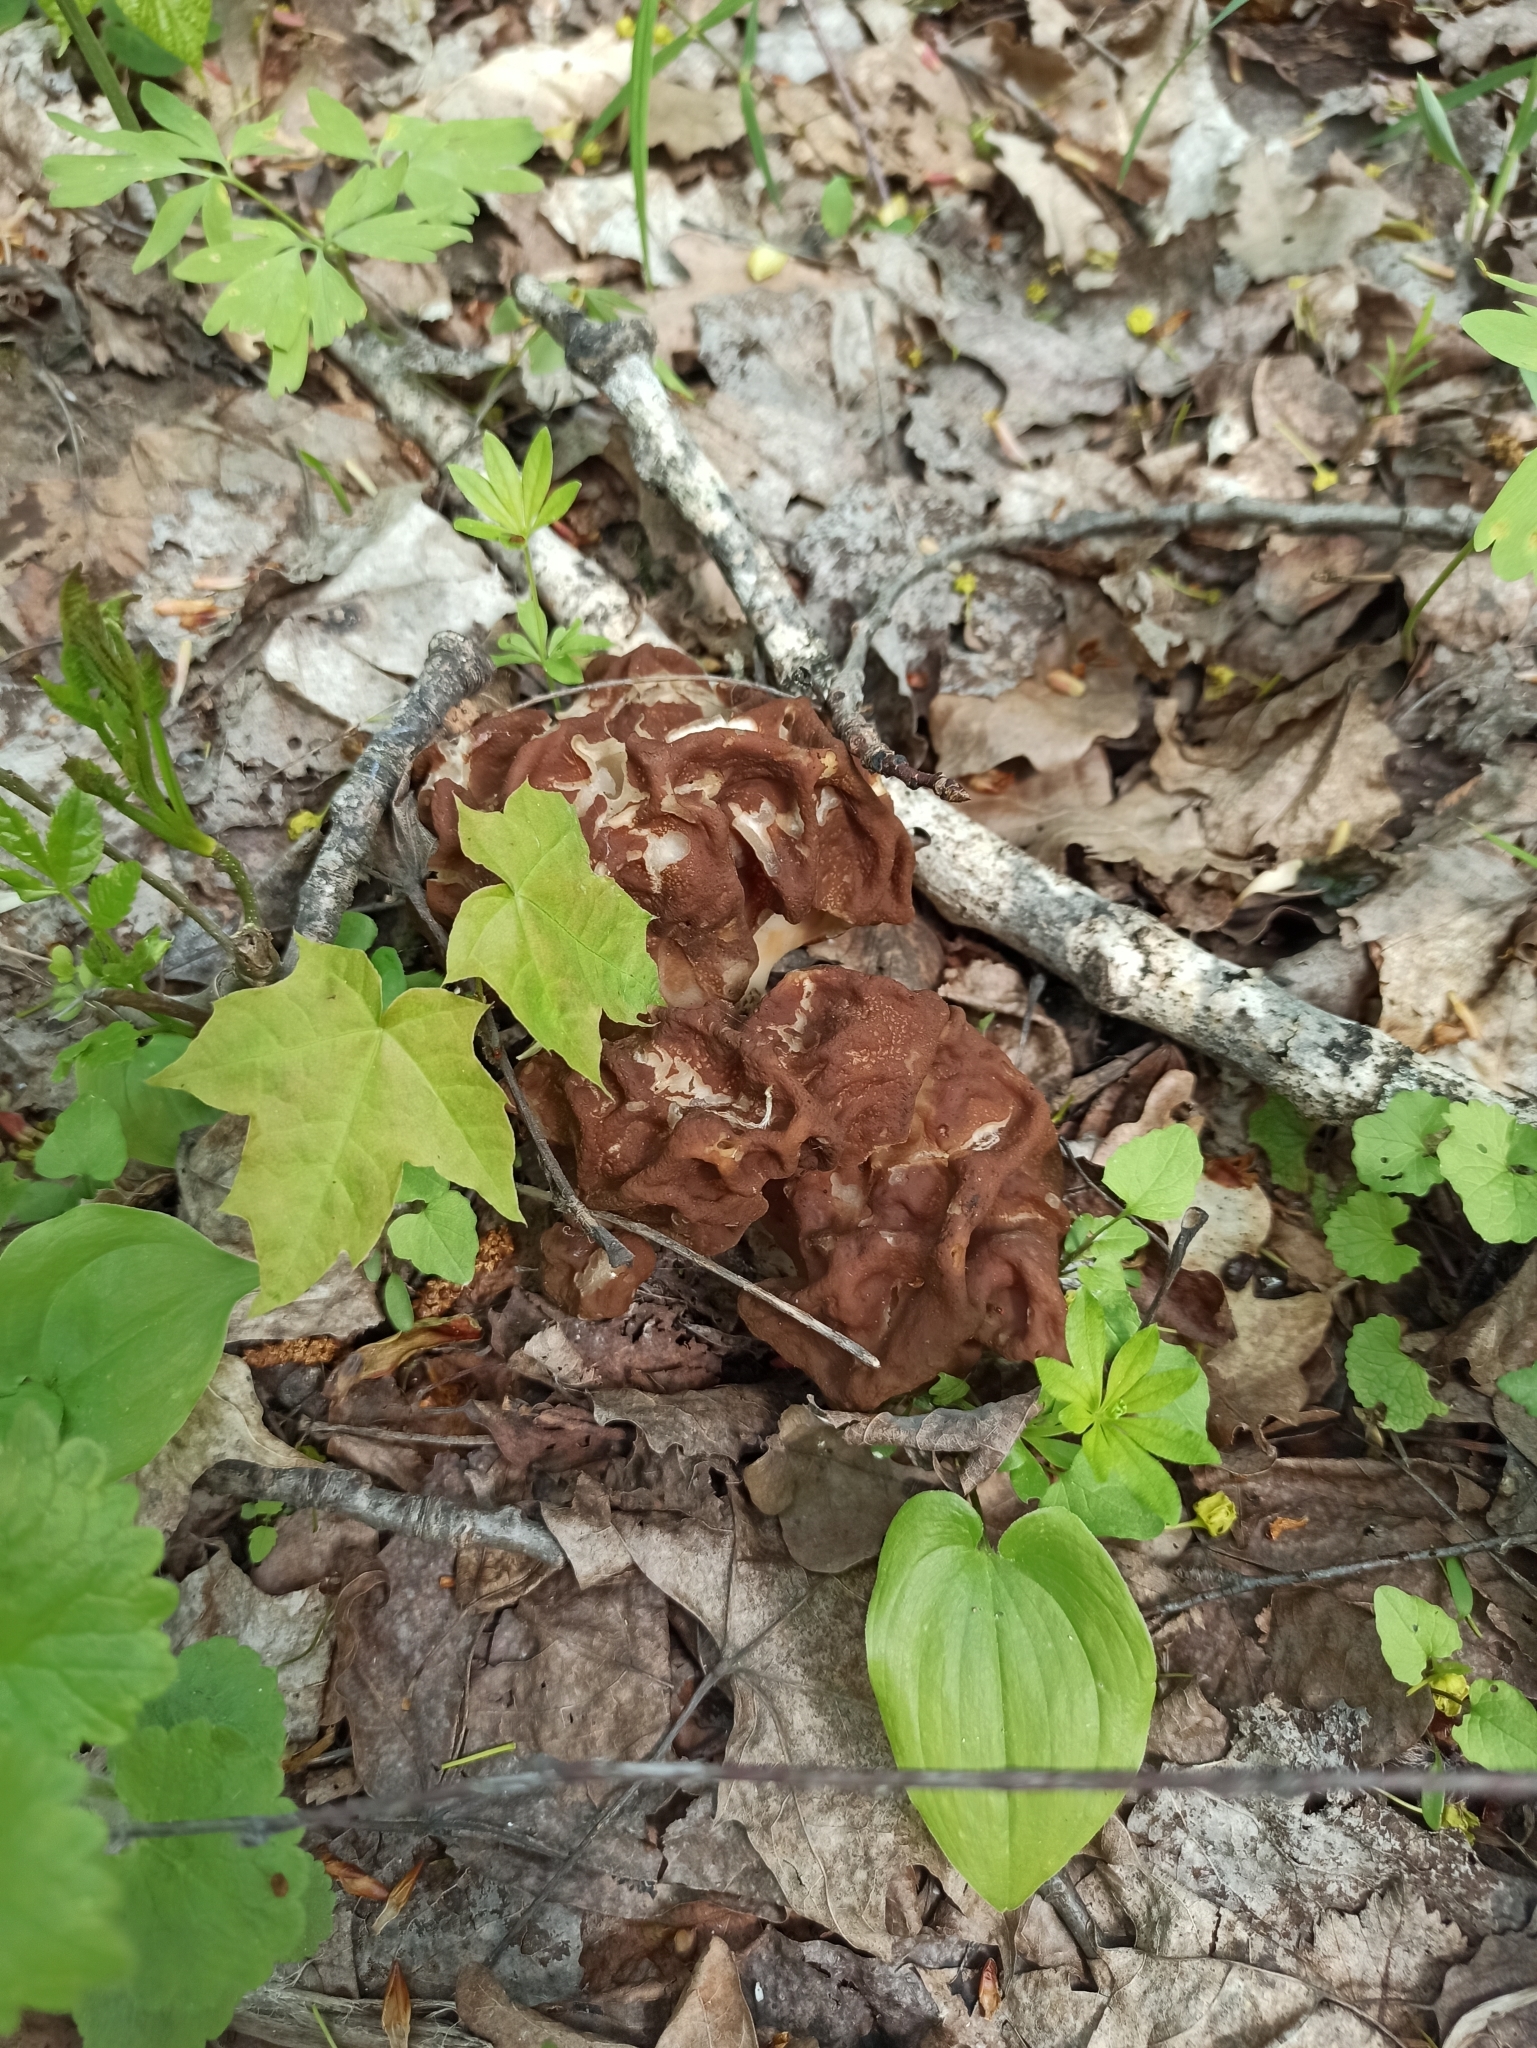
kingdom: Fungi
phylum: Ascomycota
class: Pezizomycetes
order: Pezizales
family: Discinaceae
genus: Gyromitra
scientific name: Gyromitra esculenta
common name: False morel
